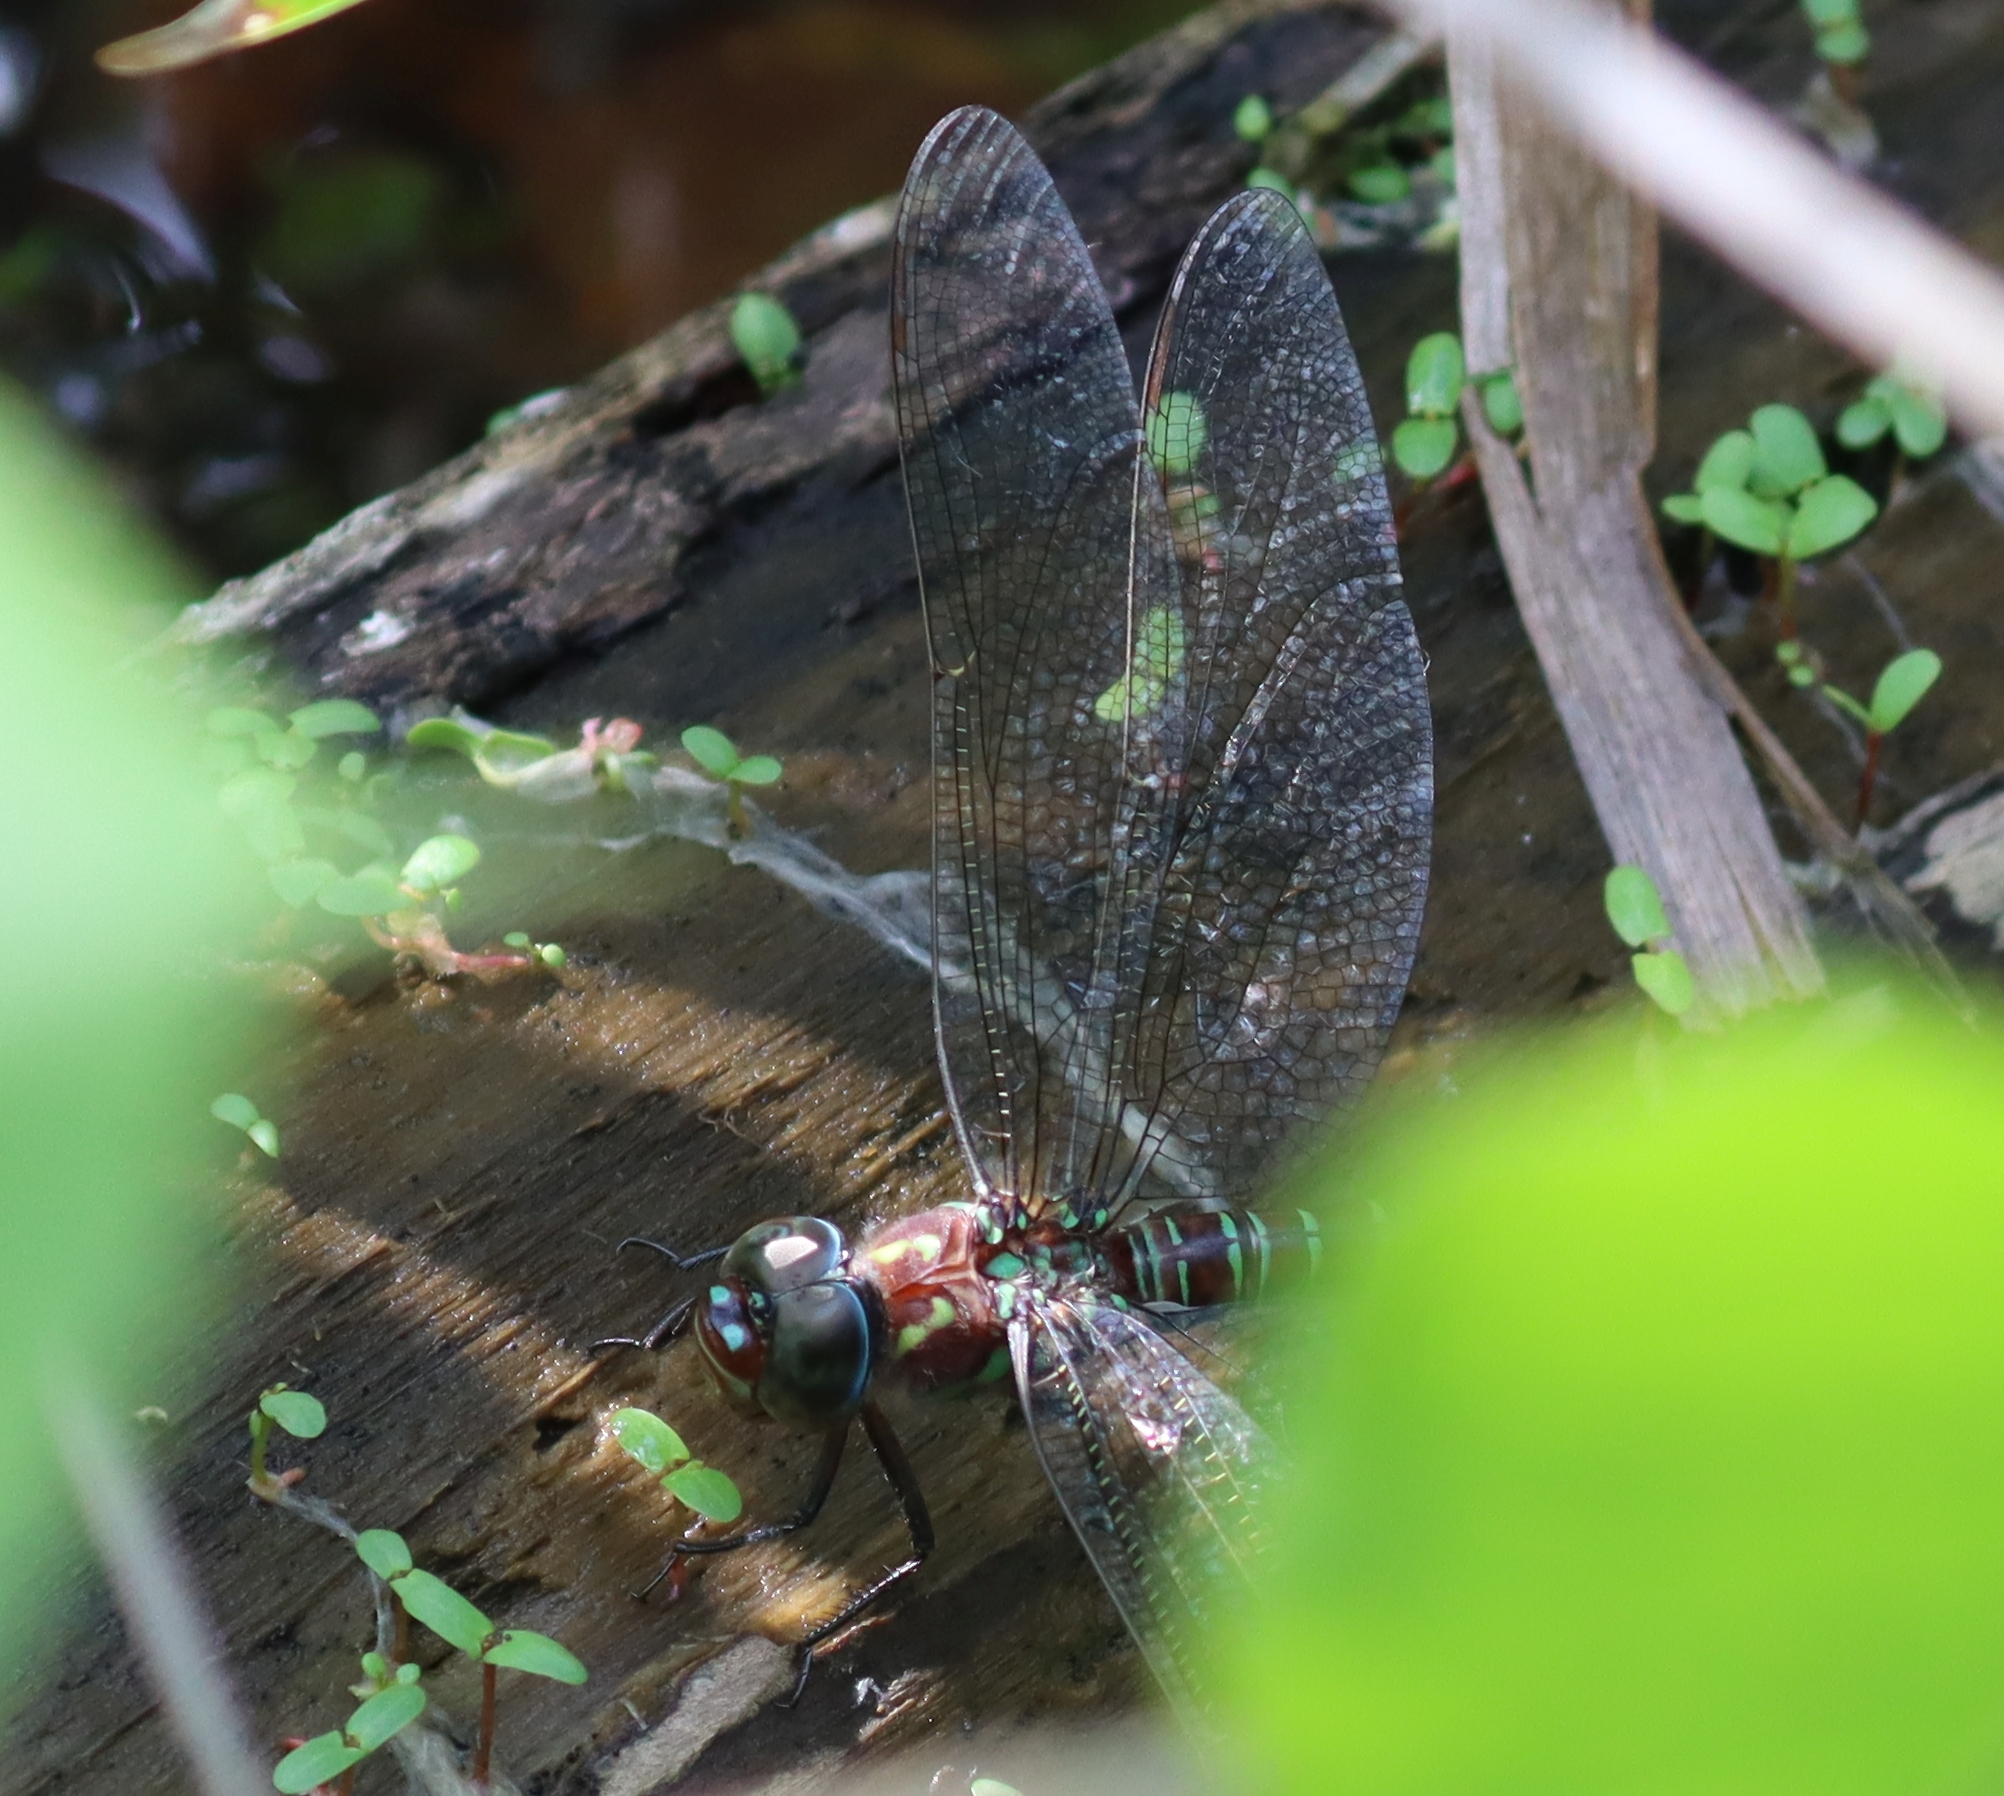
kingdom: Animalia
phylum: Arthropoda
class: Insecta
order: Odonata
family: Aeshnidae
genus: Epiaeschna
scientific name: Epiaeschna heros
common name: Swamp darner
